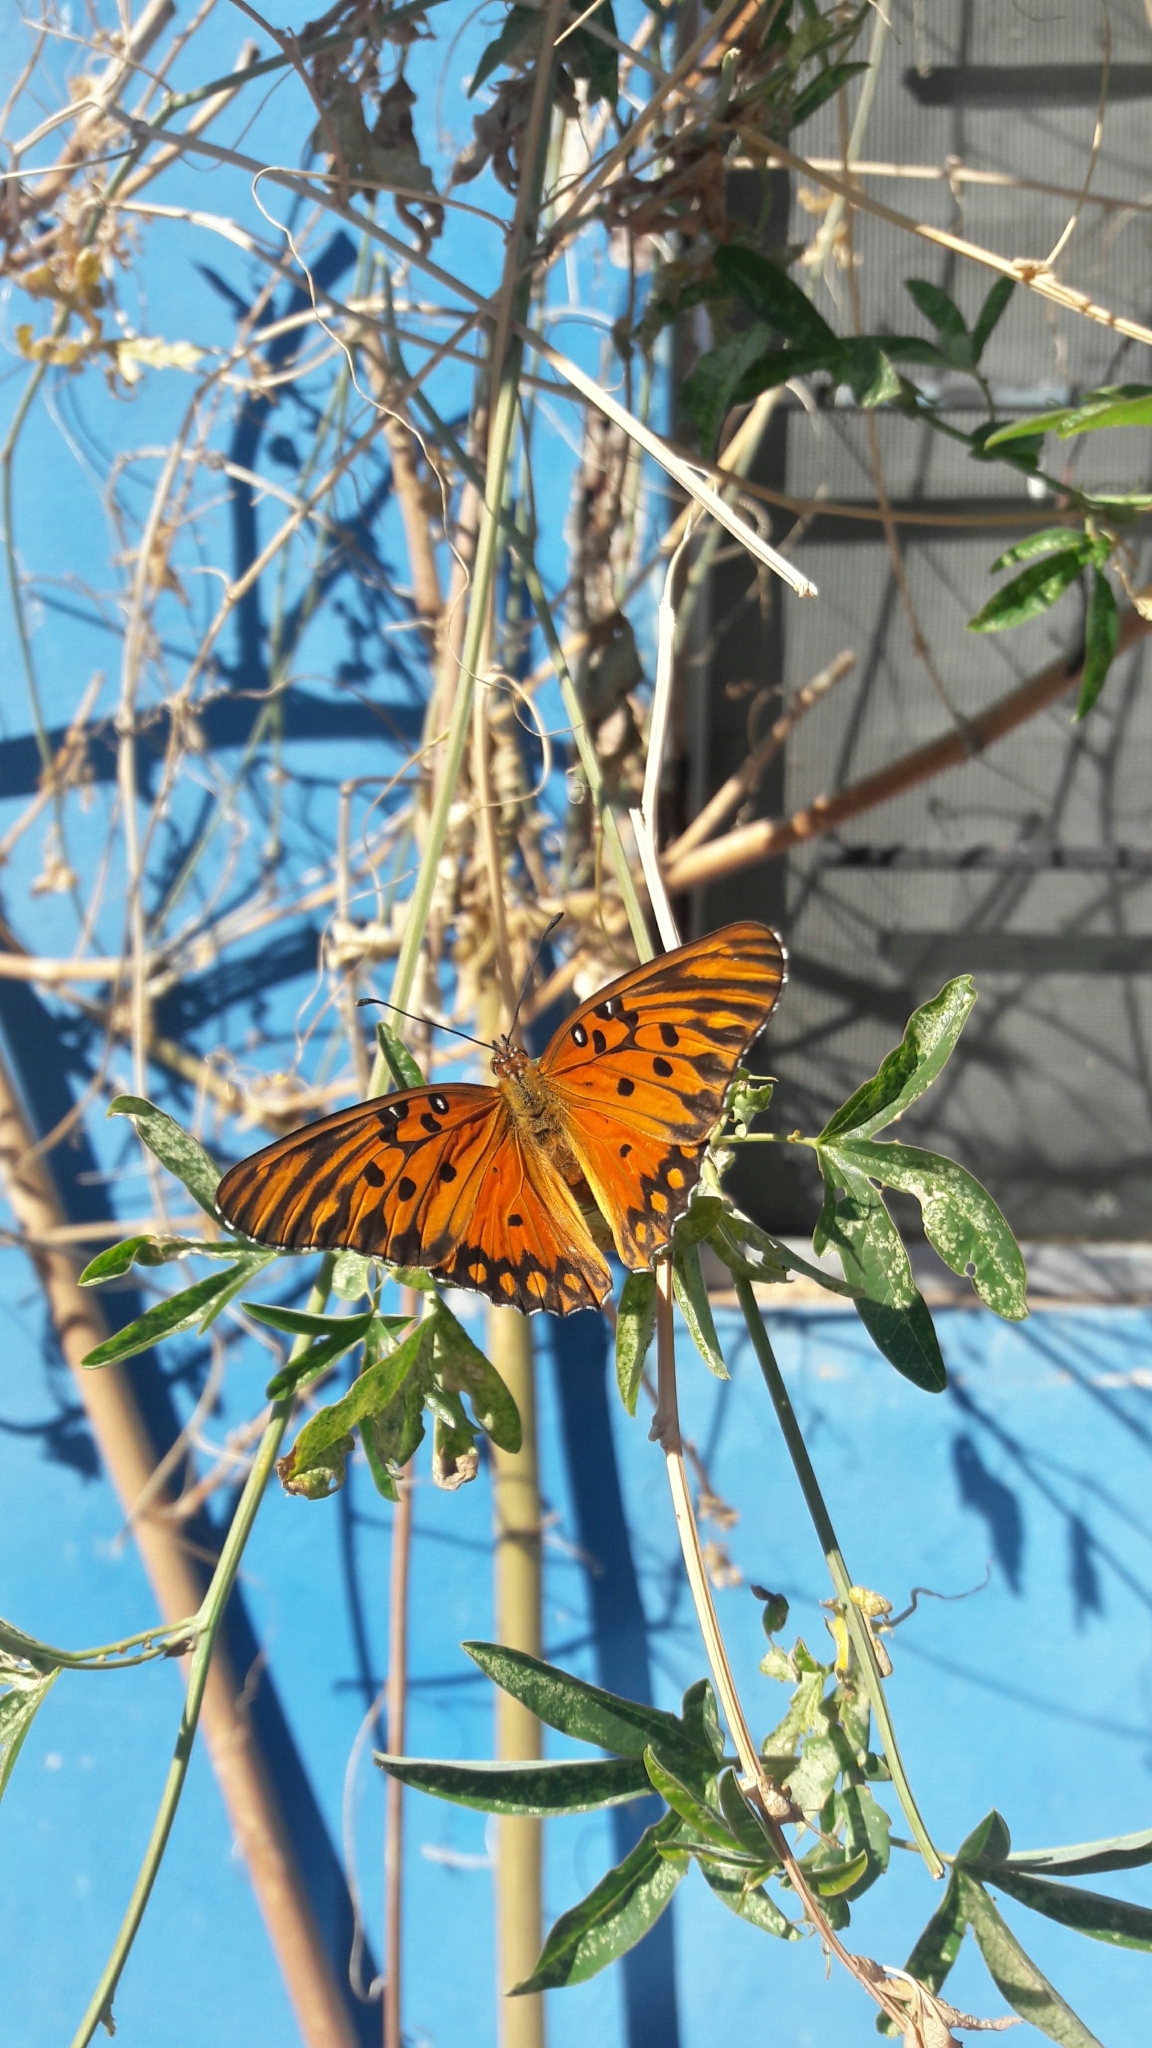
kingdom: Animalia
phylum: Arthropoda
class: Insecta
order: Lepidoptera
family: Nymphalidae
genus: Dione
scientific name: Dione vanillae
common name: Gulf fritillary
